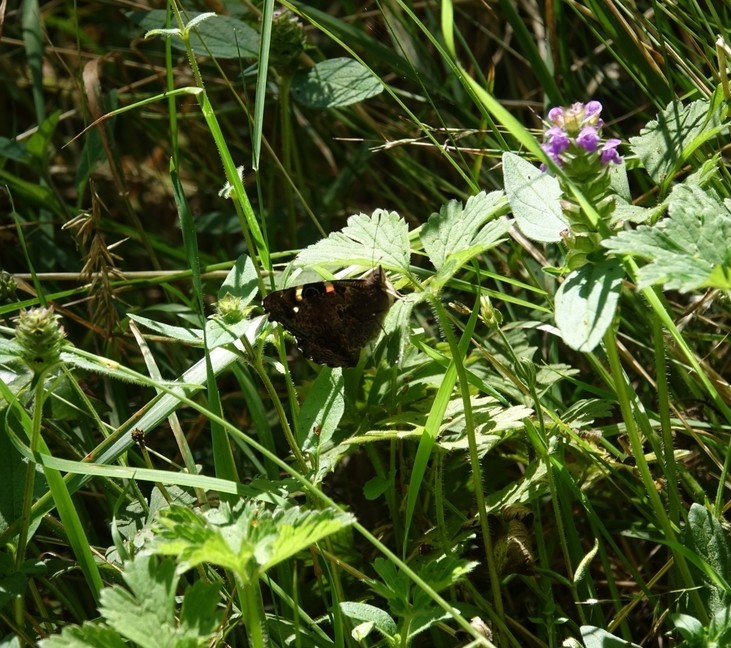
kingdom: Animalia
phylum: Arthropoda
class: Insecta
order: Lepidoptera
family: Nymphalidae
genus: Vanessa
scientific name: Vanessa itea
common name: Yellow admiral
